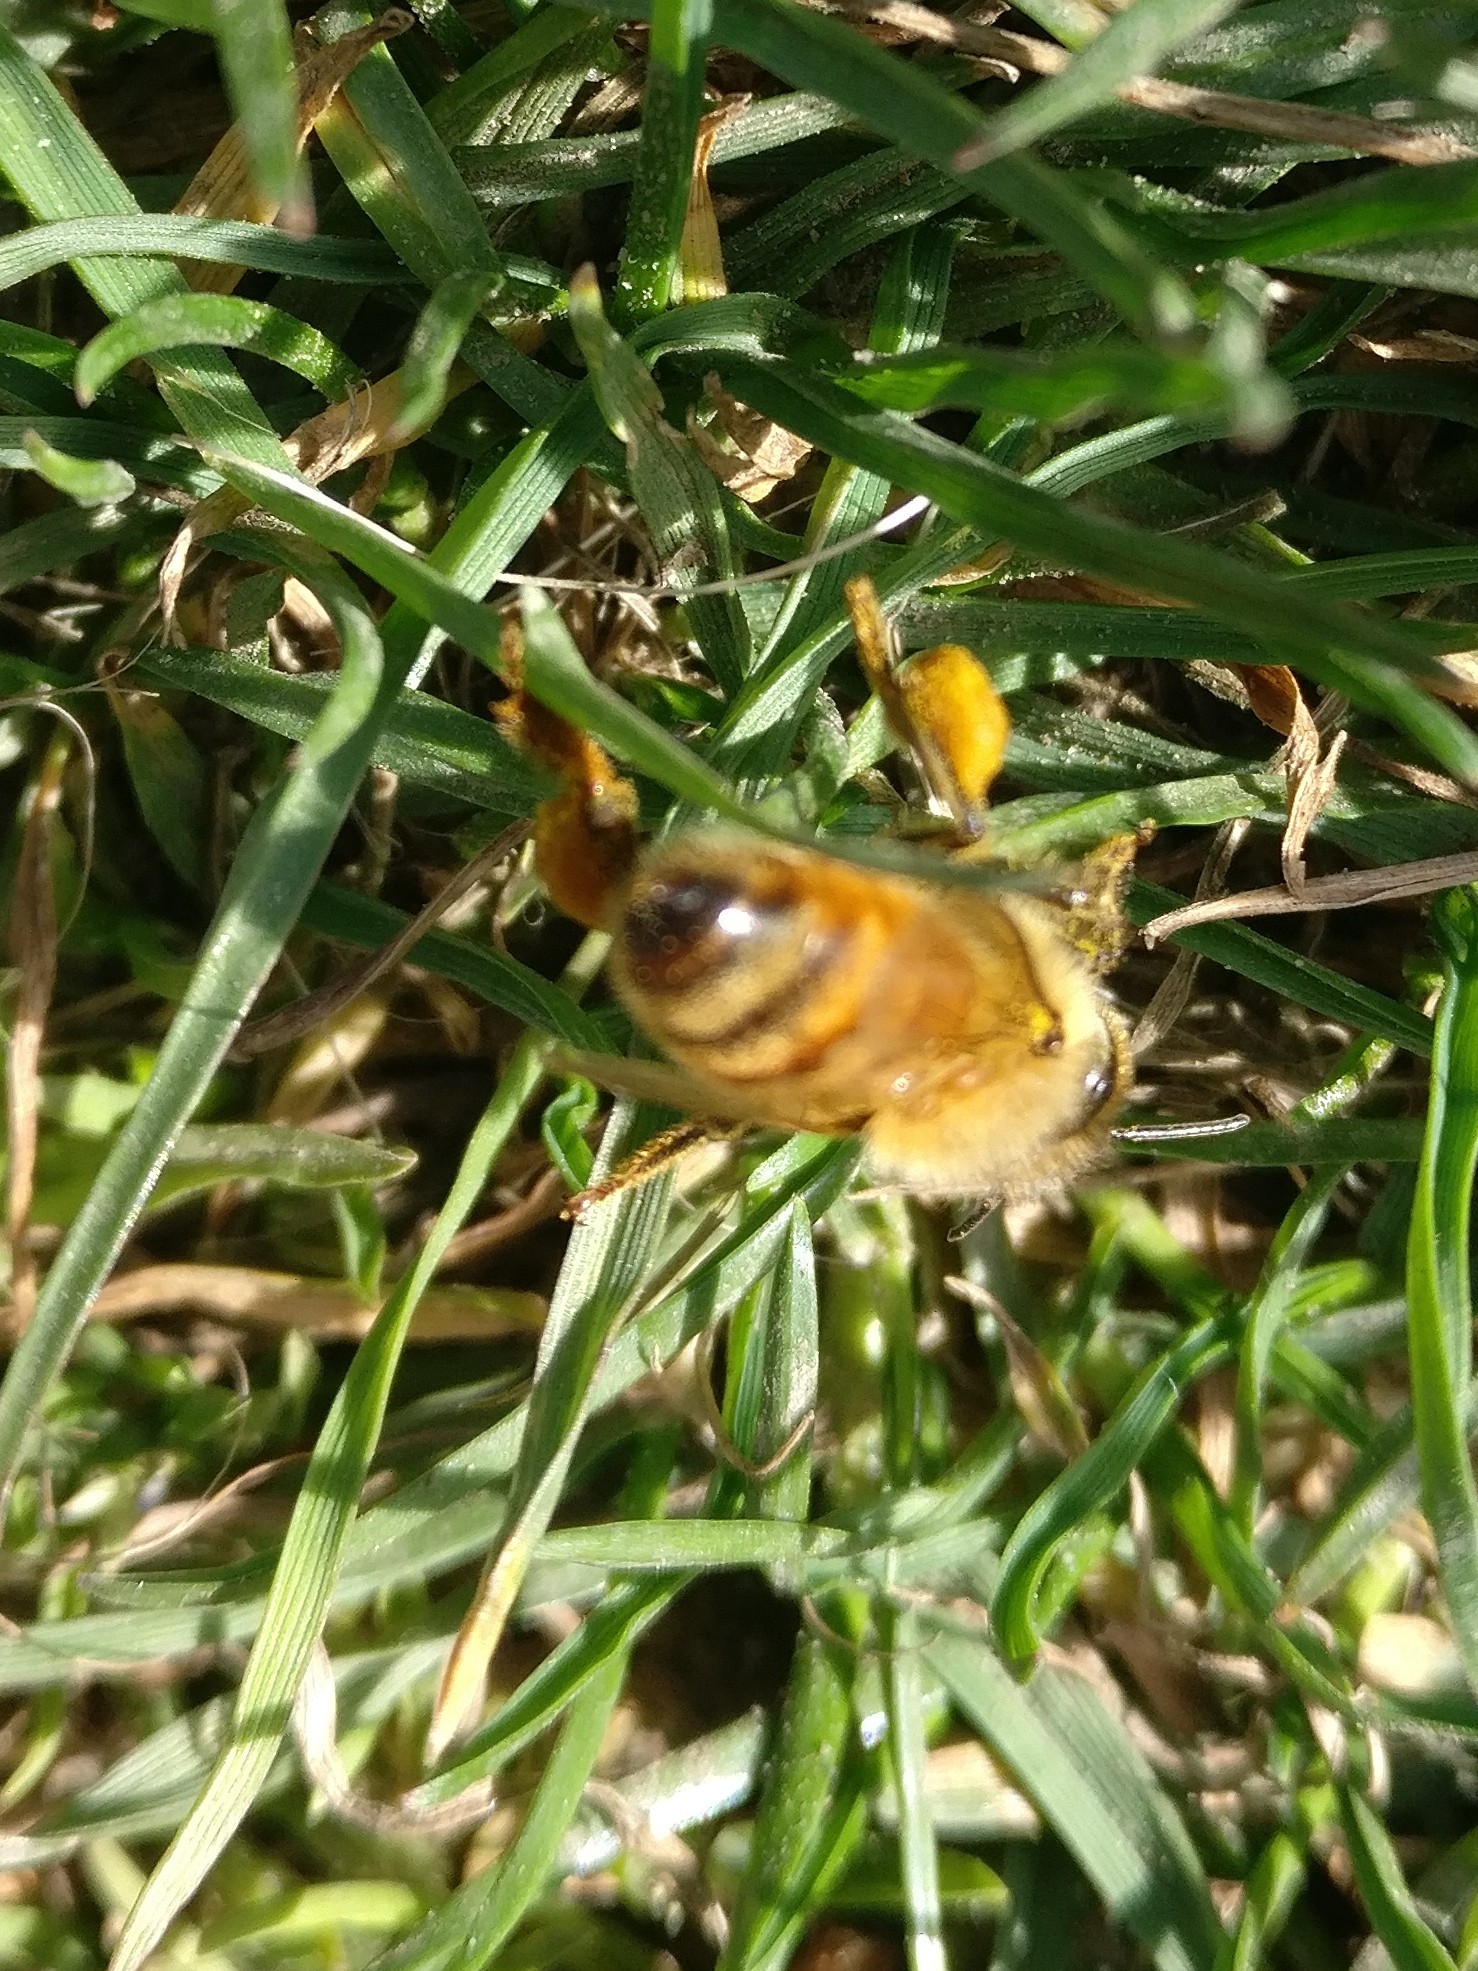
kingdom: Animalia
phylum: Arthropoda
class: Insecta
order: Hymenoptera
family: Apidae
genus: Apis
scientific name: Apis mellifera
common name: Honey bee
